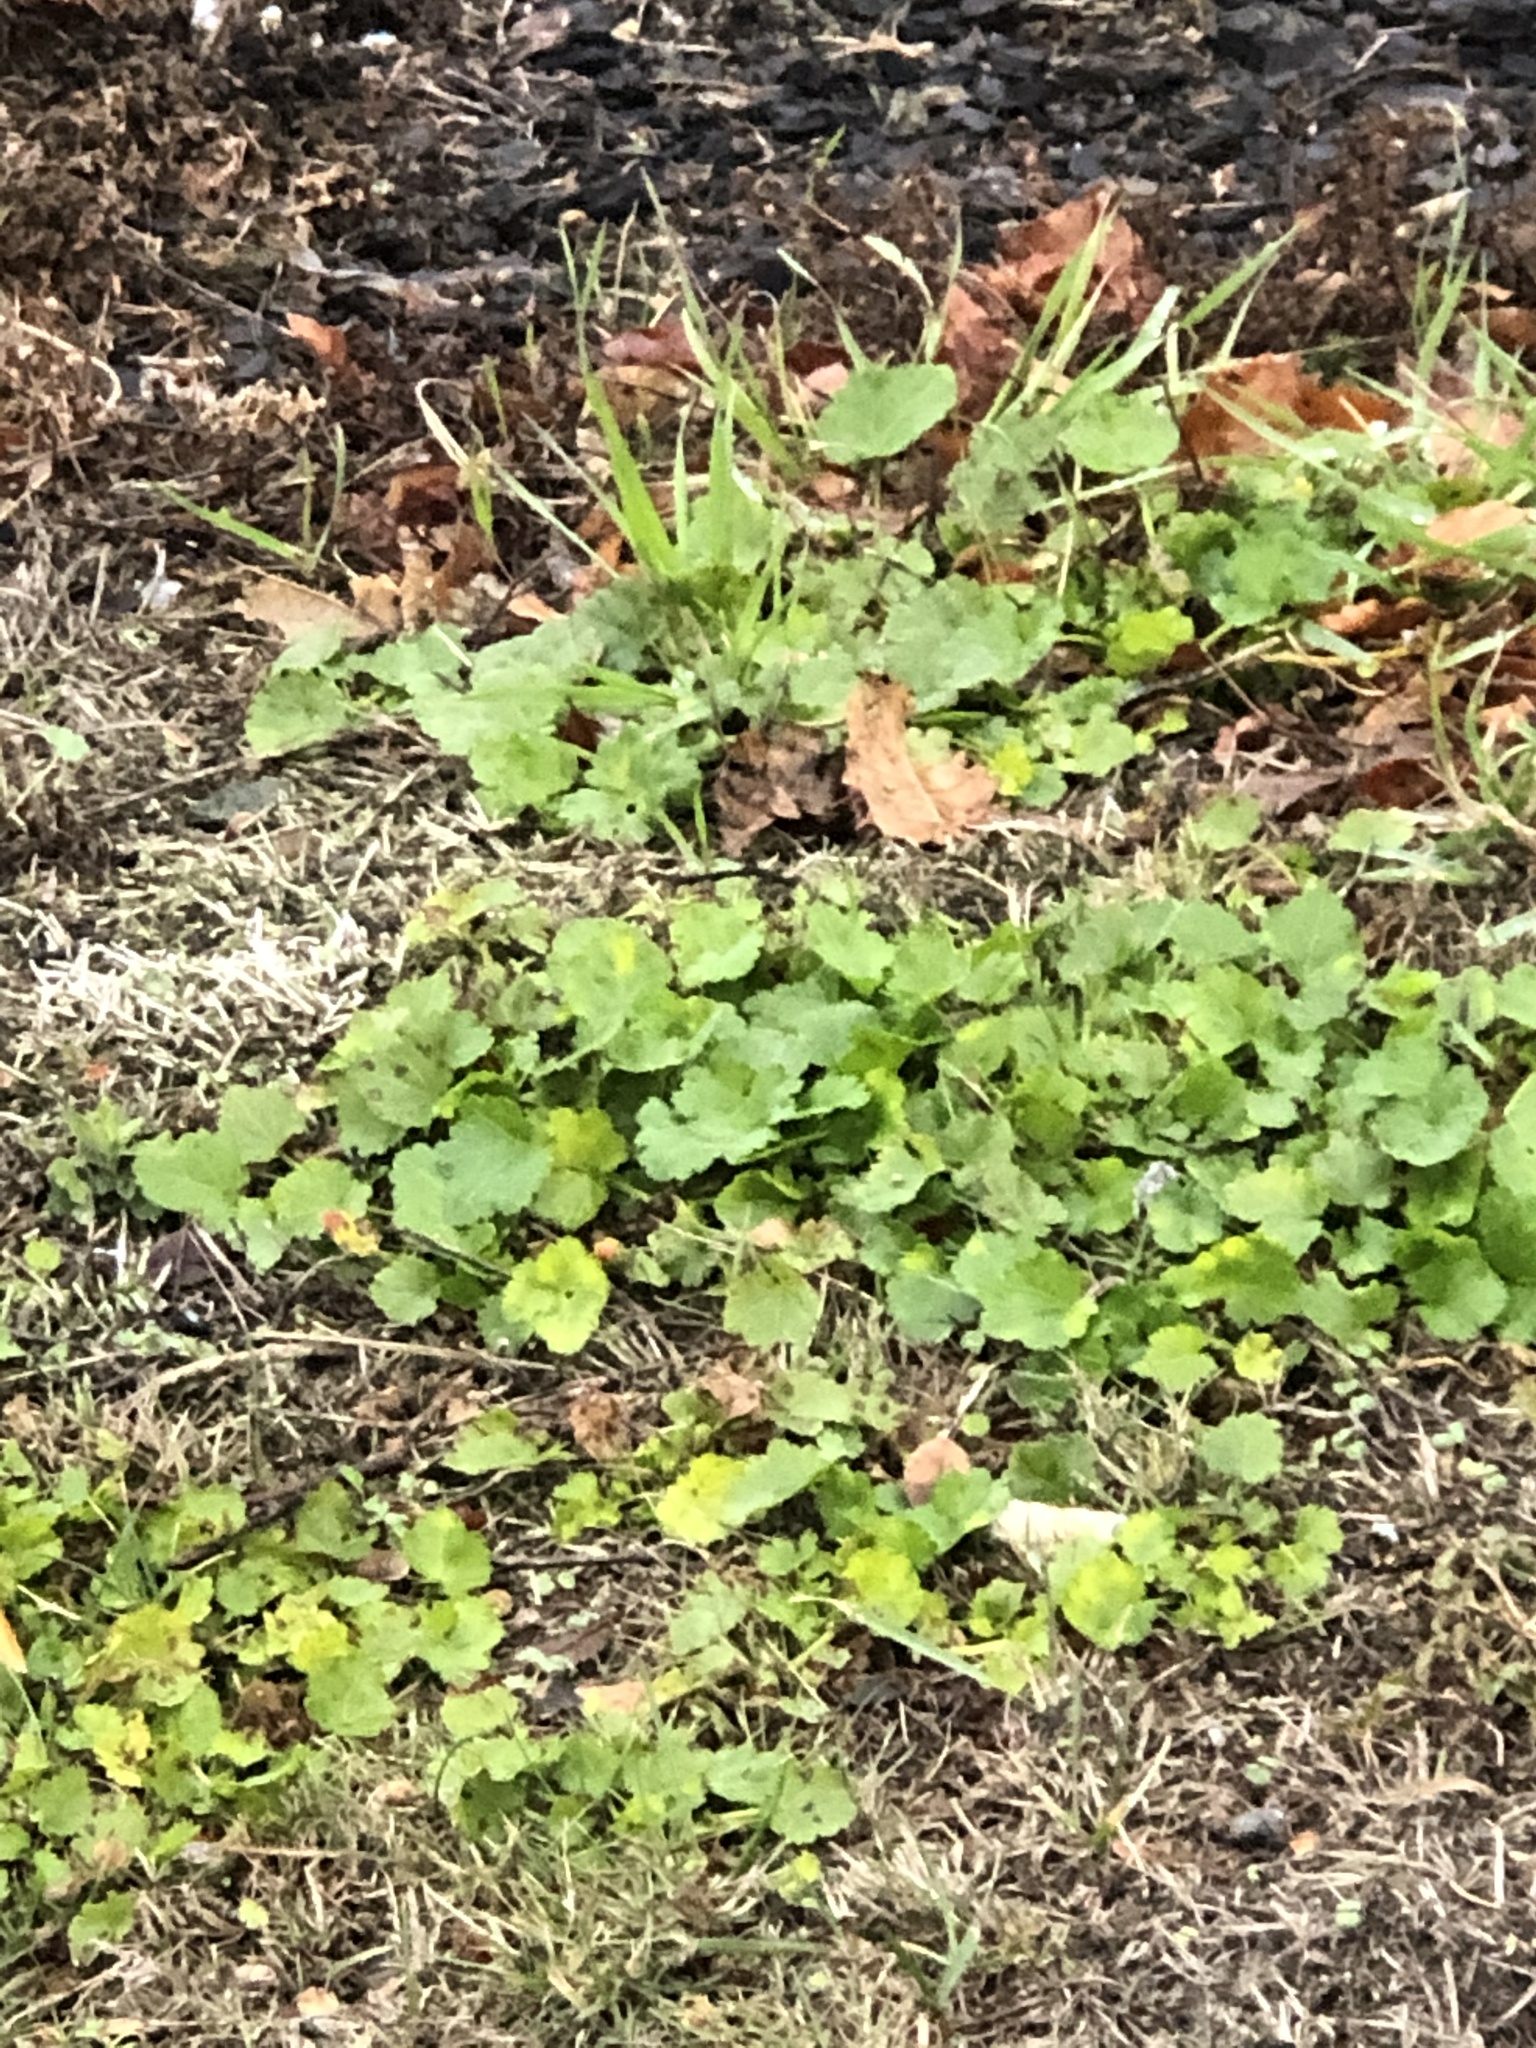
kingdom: Plantae
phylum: Tracheophyta
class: Magnoliopsida
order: Malvales
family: Malvaceae
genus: Modiola
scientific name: Modiola caroliniana
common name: Carolina bristlemallow
